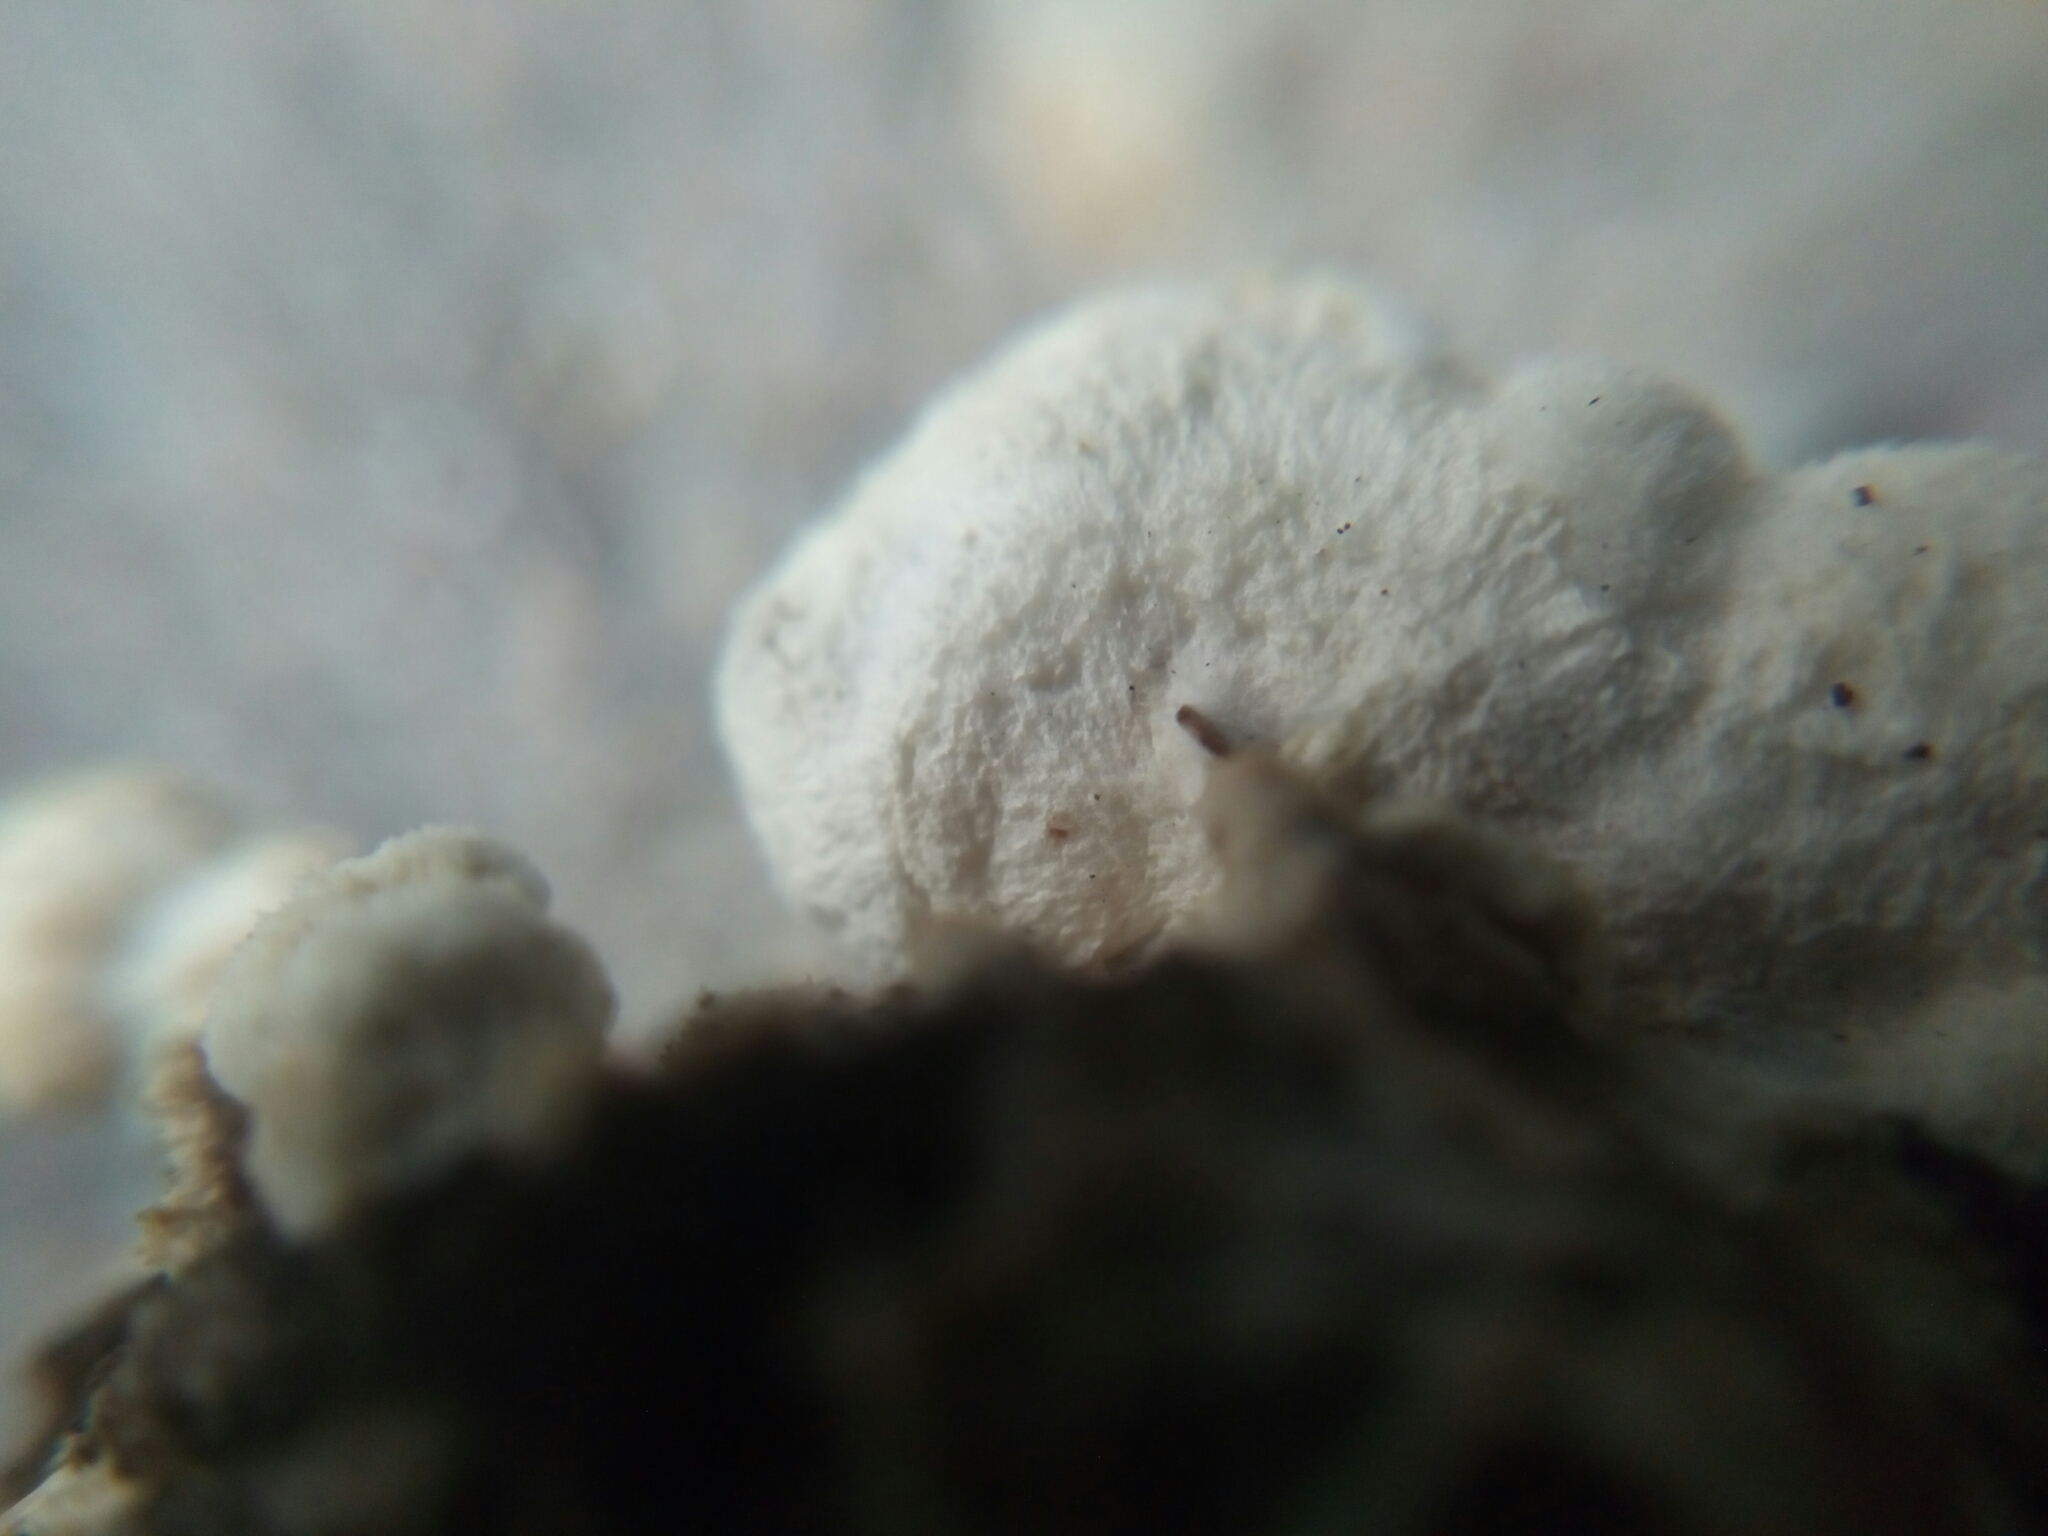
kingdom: Fungi
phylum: Basidiomycota
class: Agaricomycetes
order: Polyporales
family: Irpicaceae
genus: Vitreoporus
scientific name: Vitreoporus dichrous
